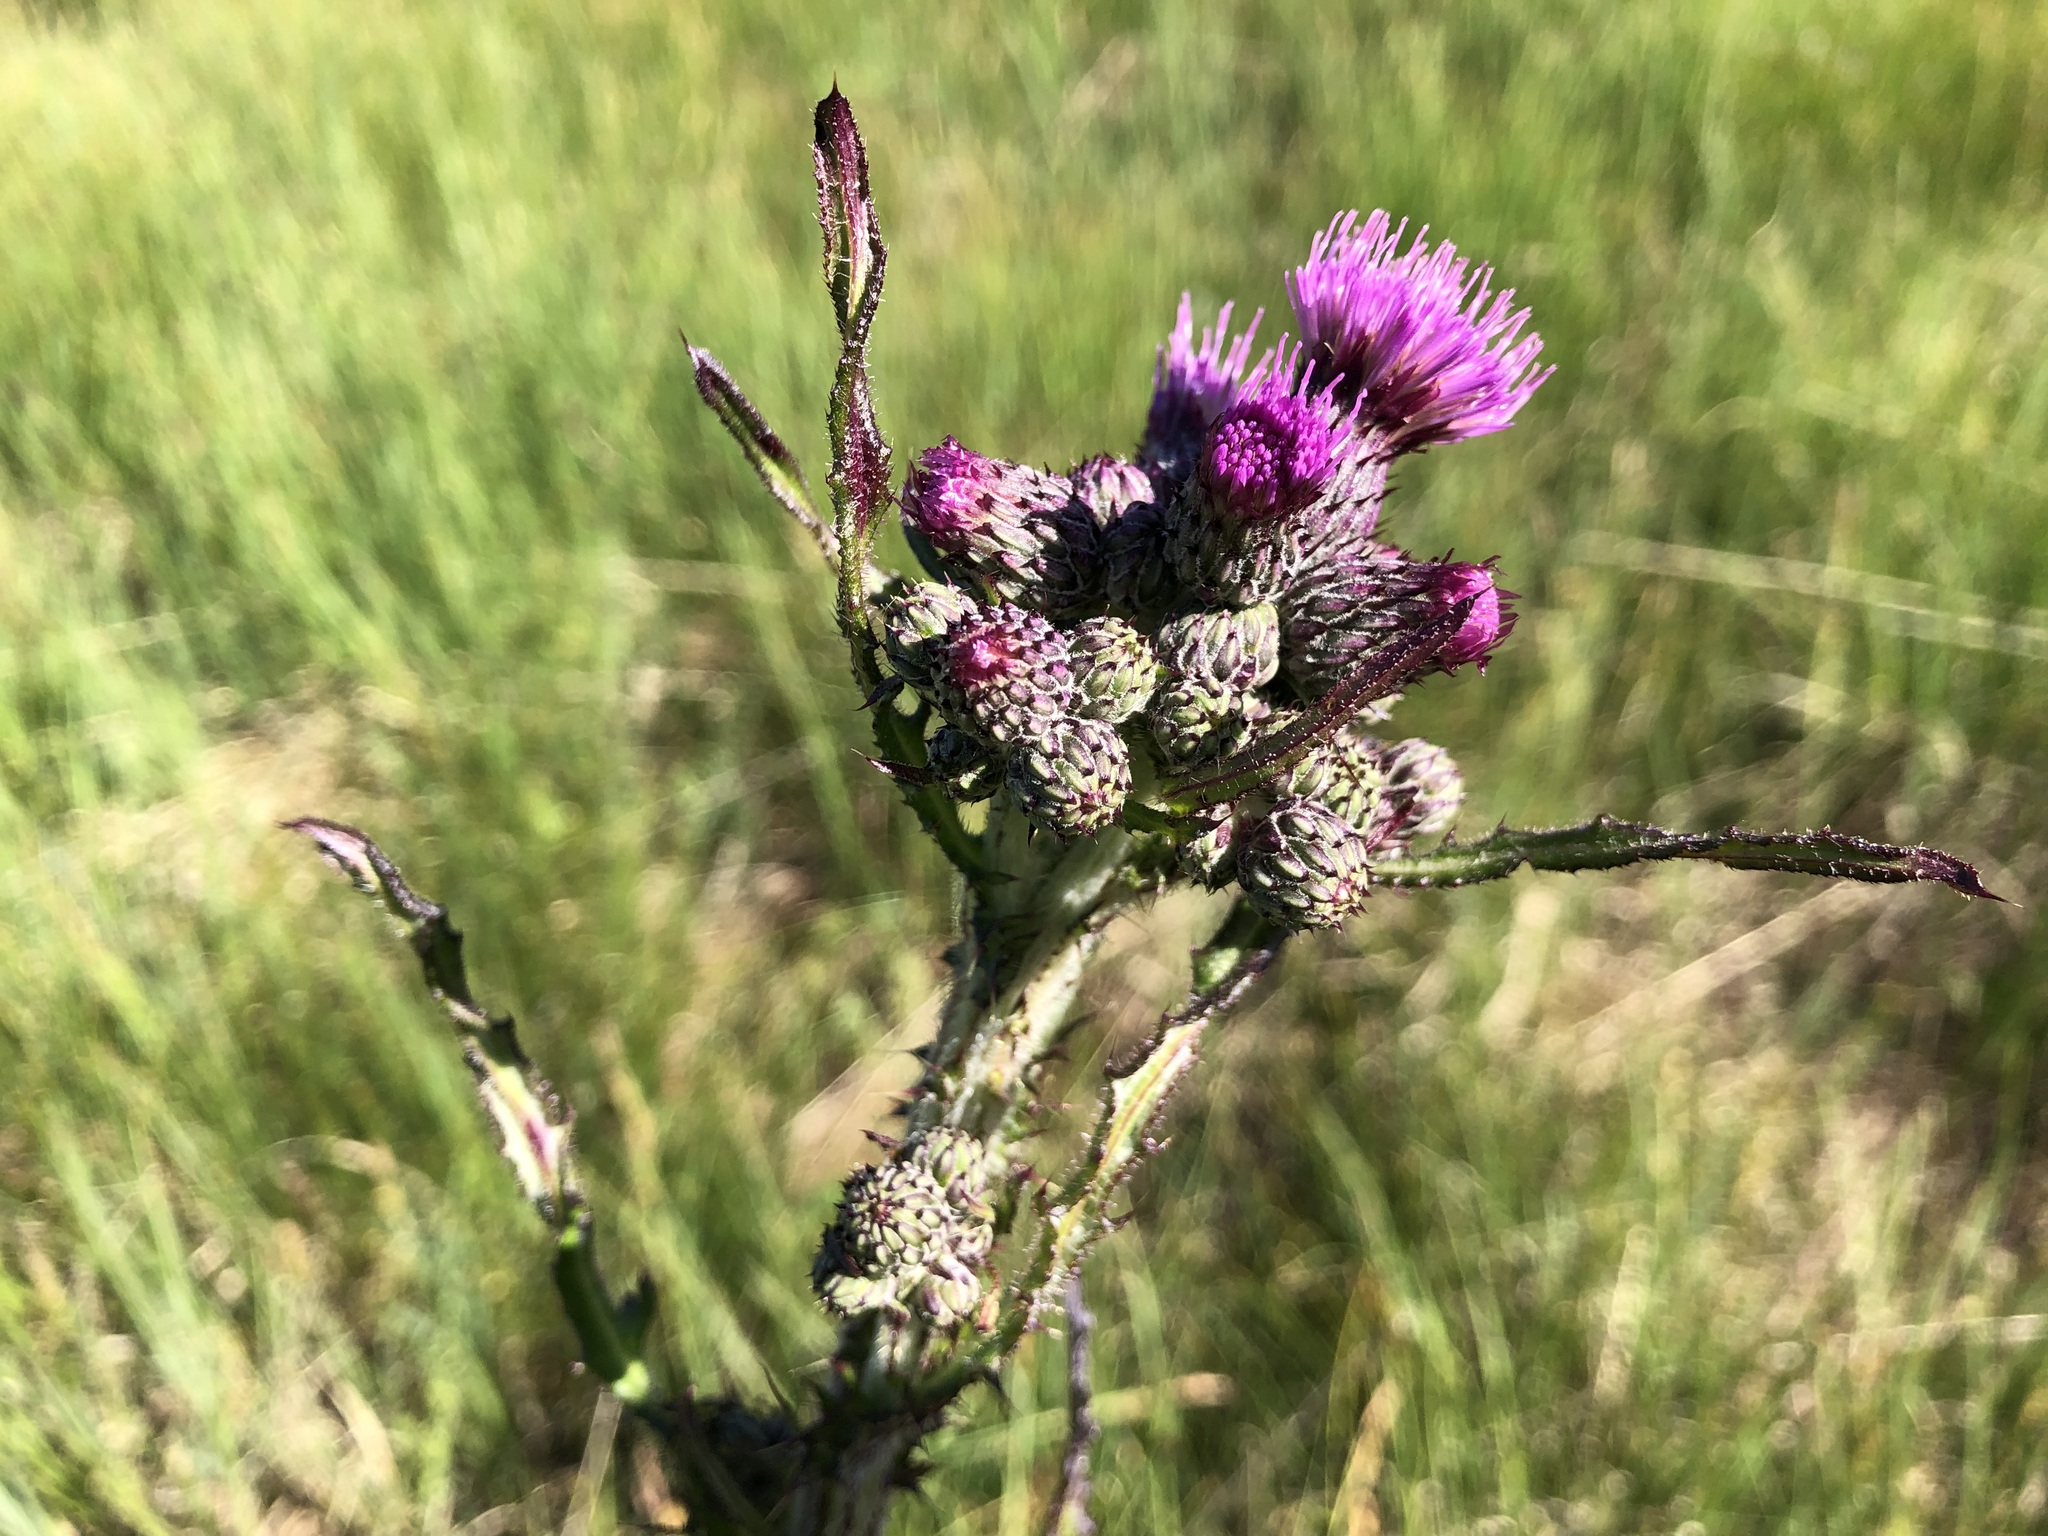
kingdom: Plantae
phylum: Tracheophyta
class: Magnoliopsida
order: Asterales
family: Asteraceae
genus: Cirsium
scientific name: Cirsium palustre
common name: Marsh thistle
